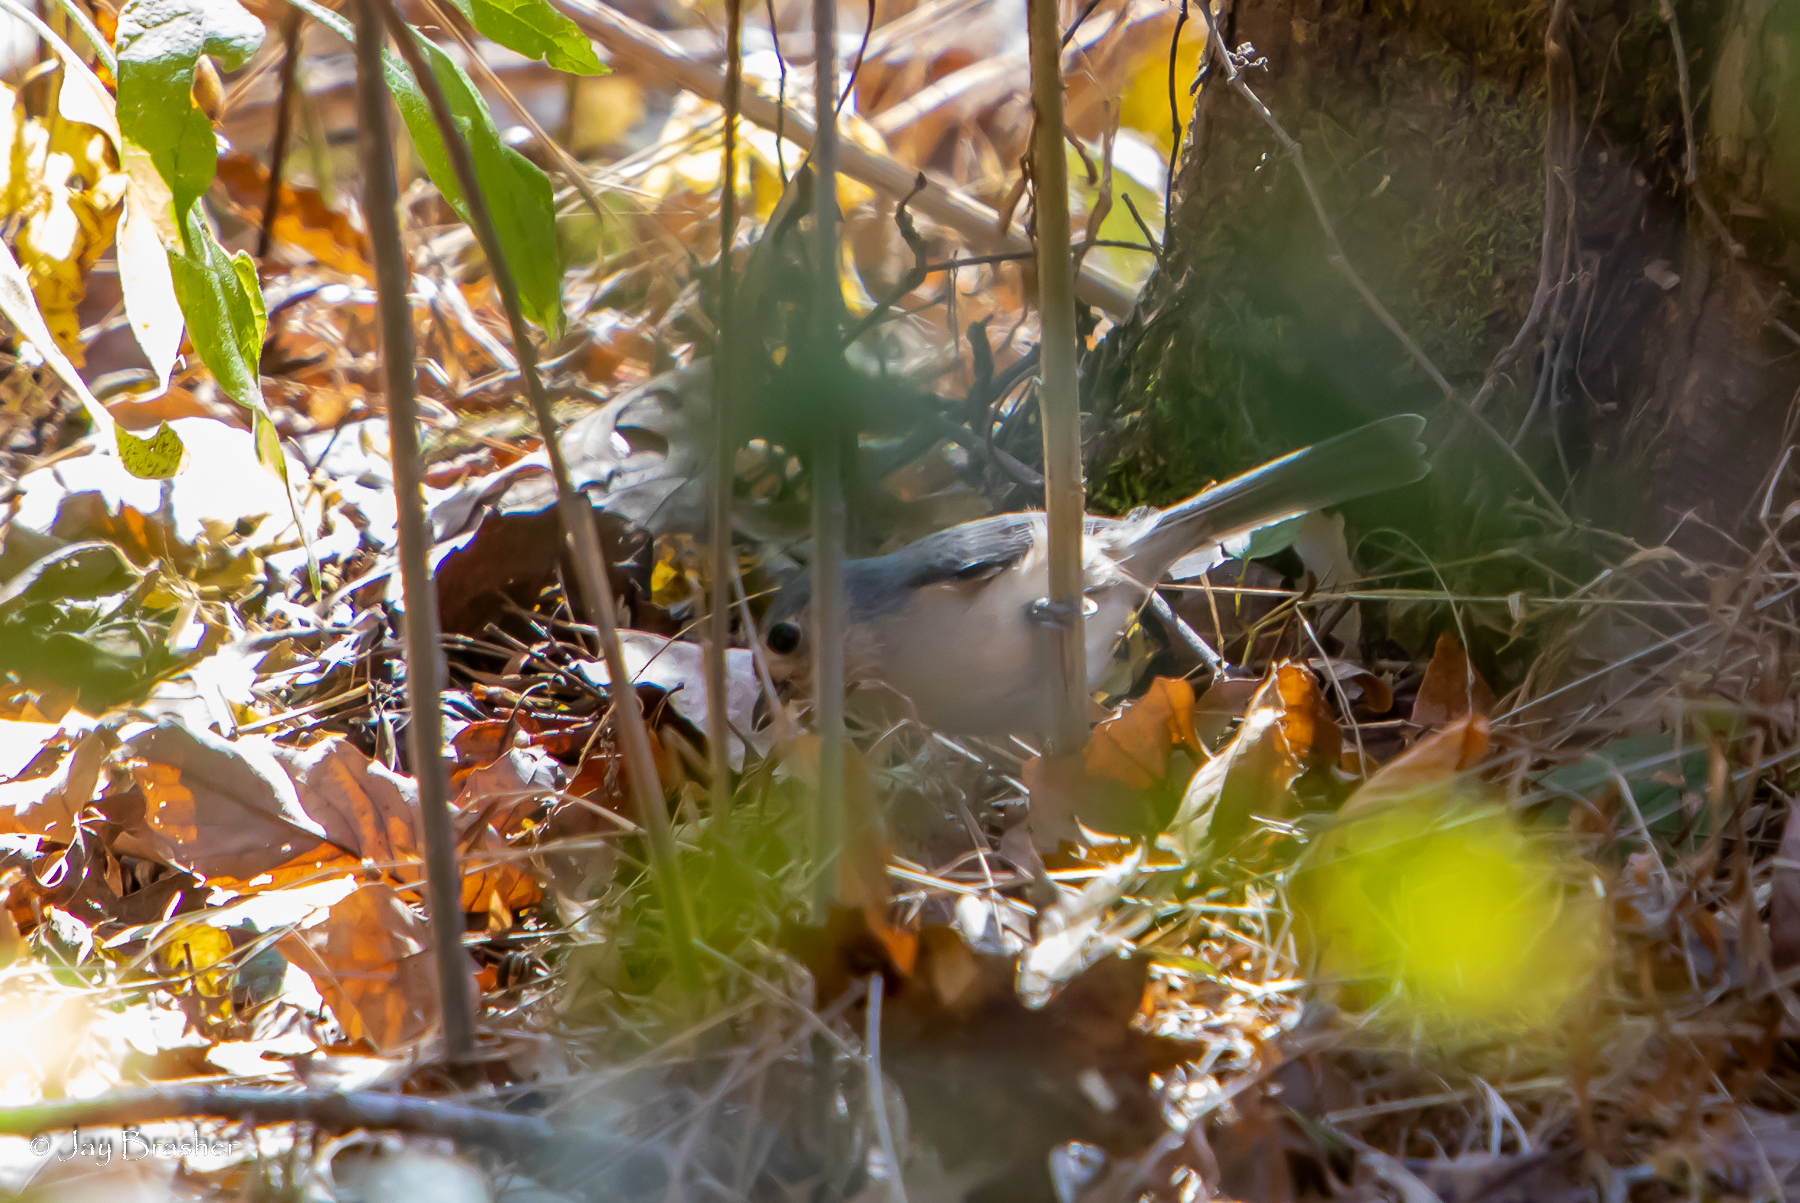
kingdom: Animalia
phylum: Chordata
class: Aves
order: Passeriformes
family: Paridae
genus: Baeolophus
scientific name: Baeolophus bicolor
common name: Tufted titmouse
